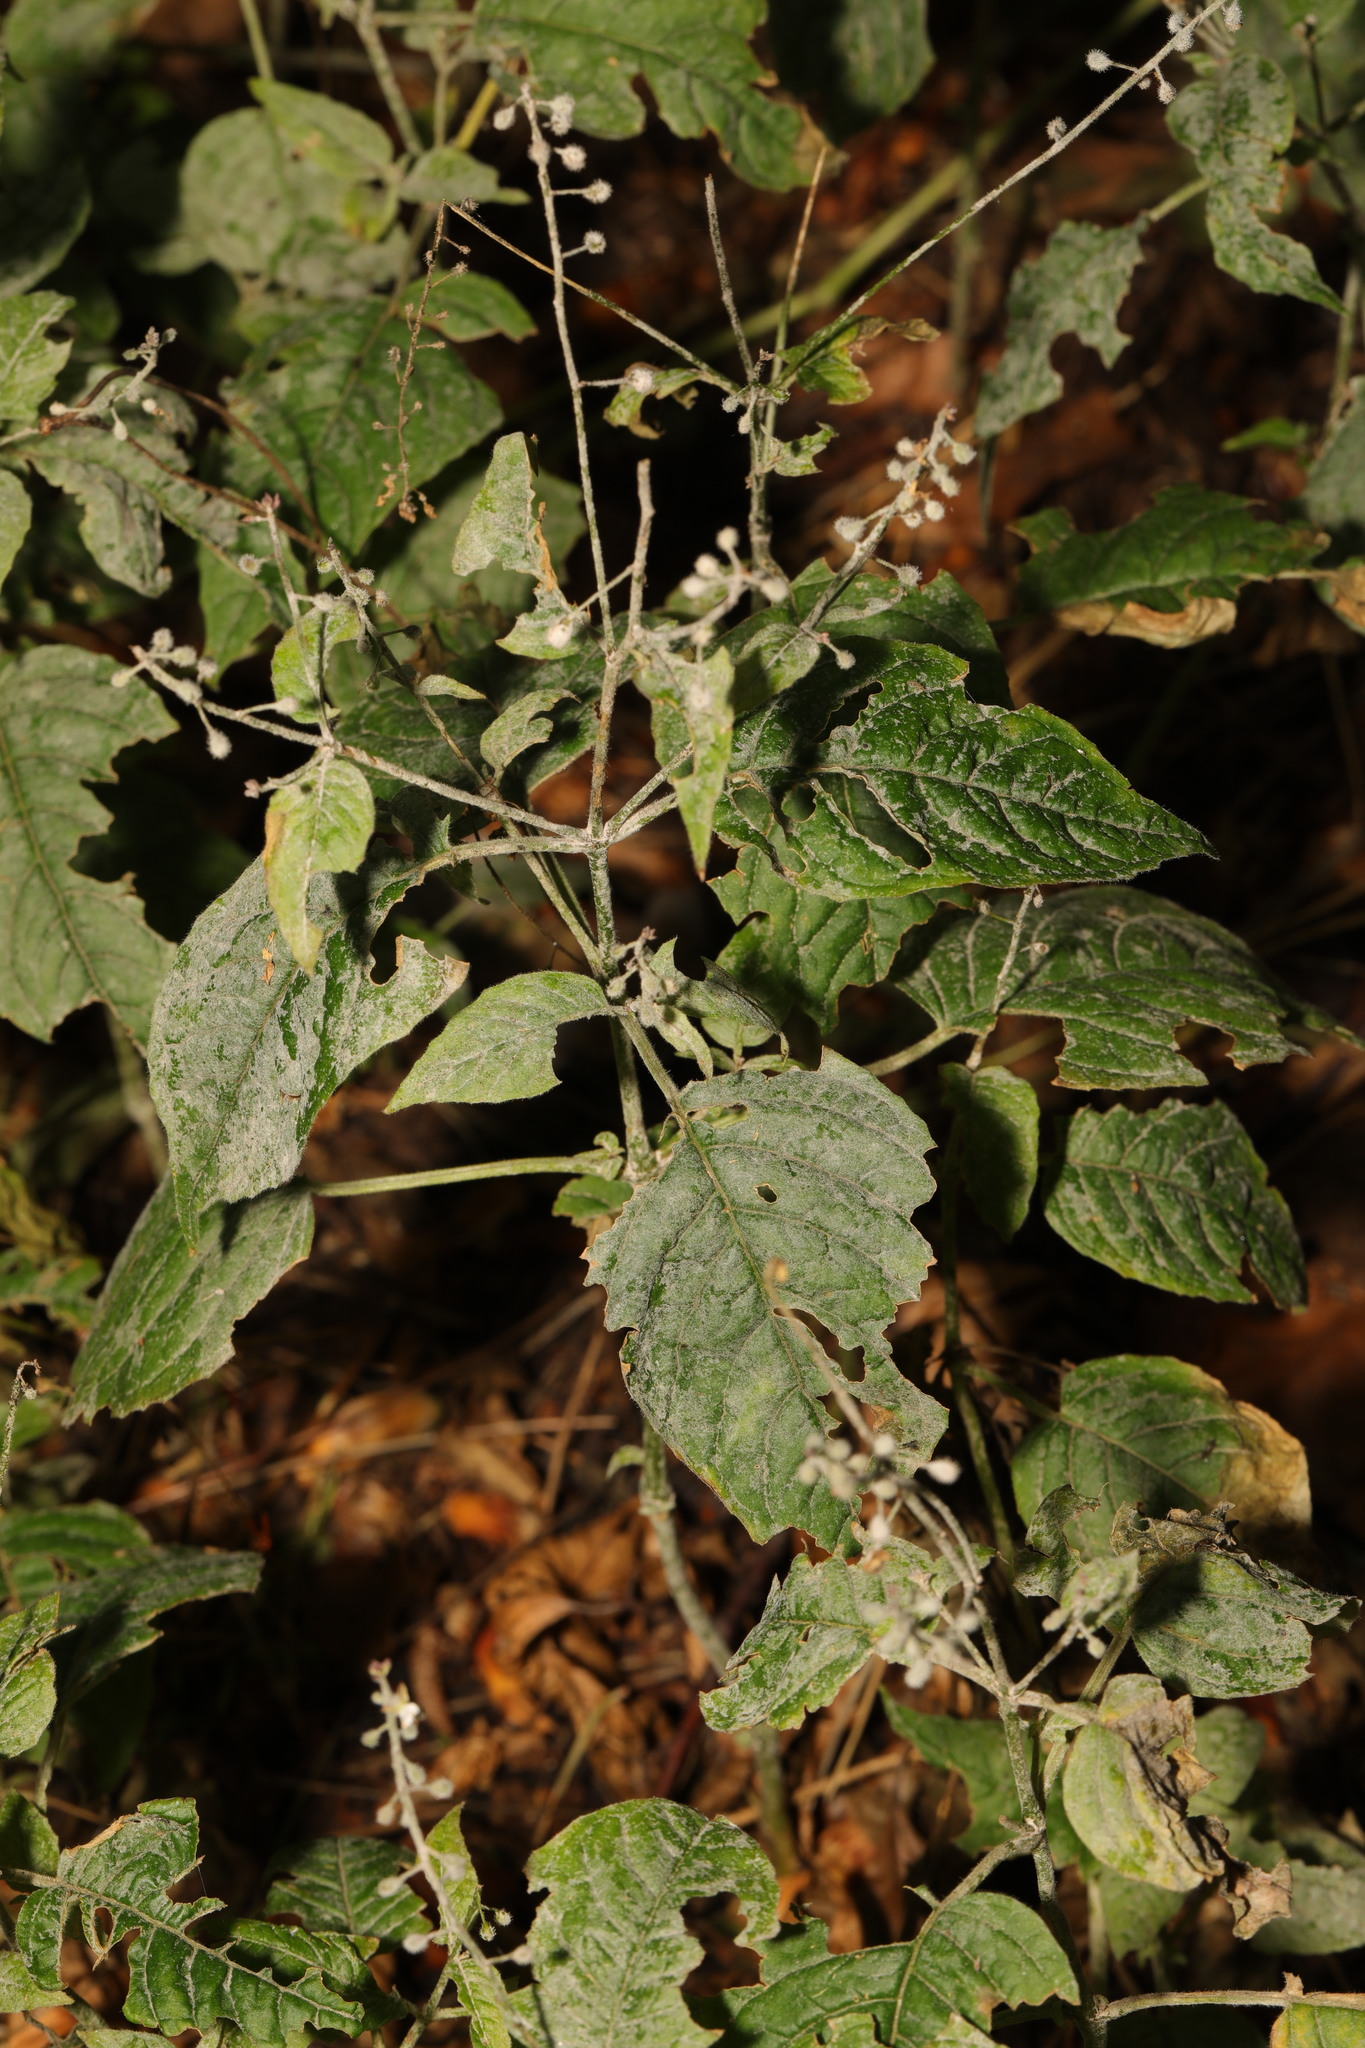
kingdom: Fungi
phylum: Ascomycota
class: Leotiomycetes
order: Helotiales
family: Erysiphaceae
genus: Erysiphe
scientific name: Erysiphe circaeae
